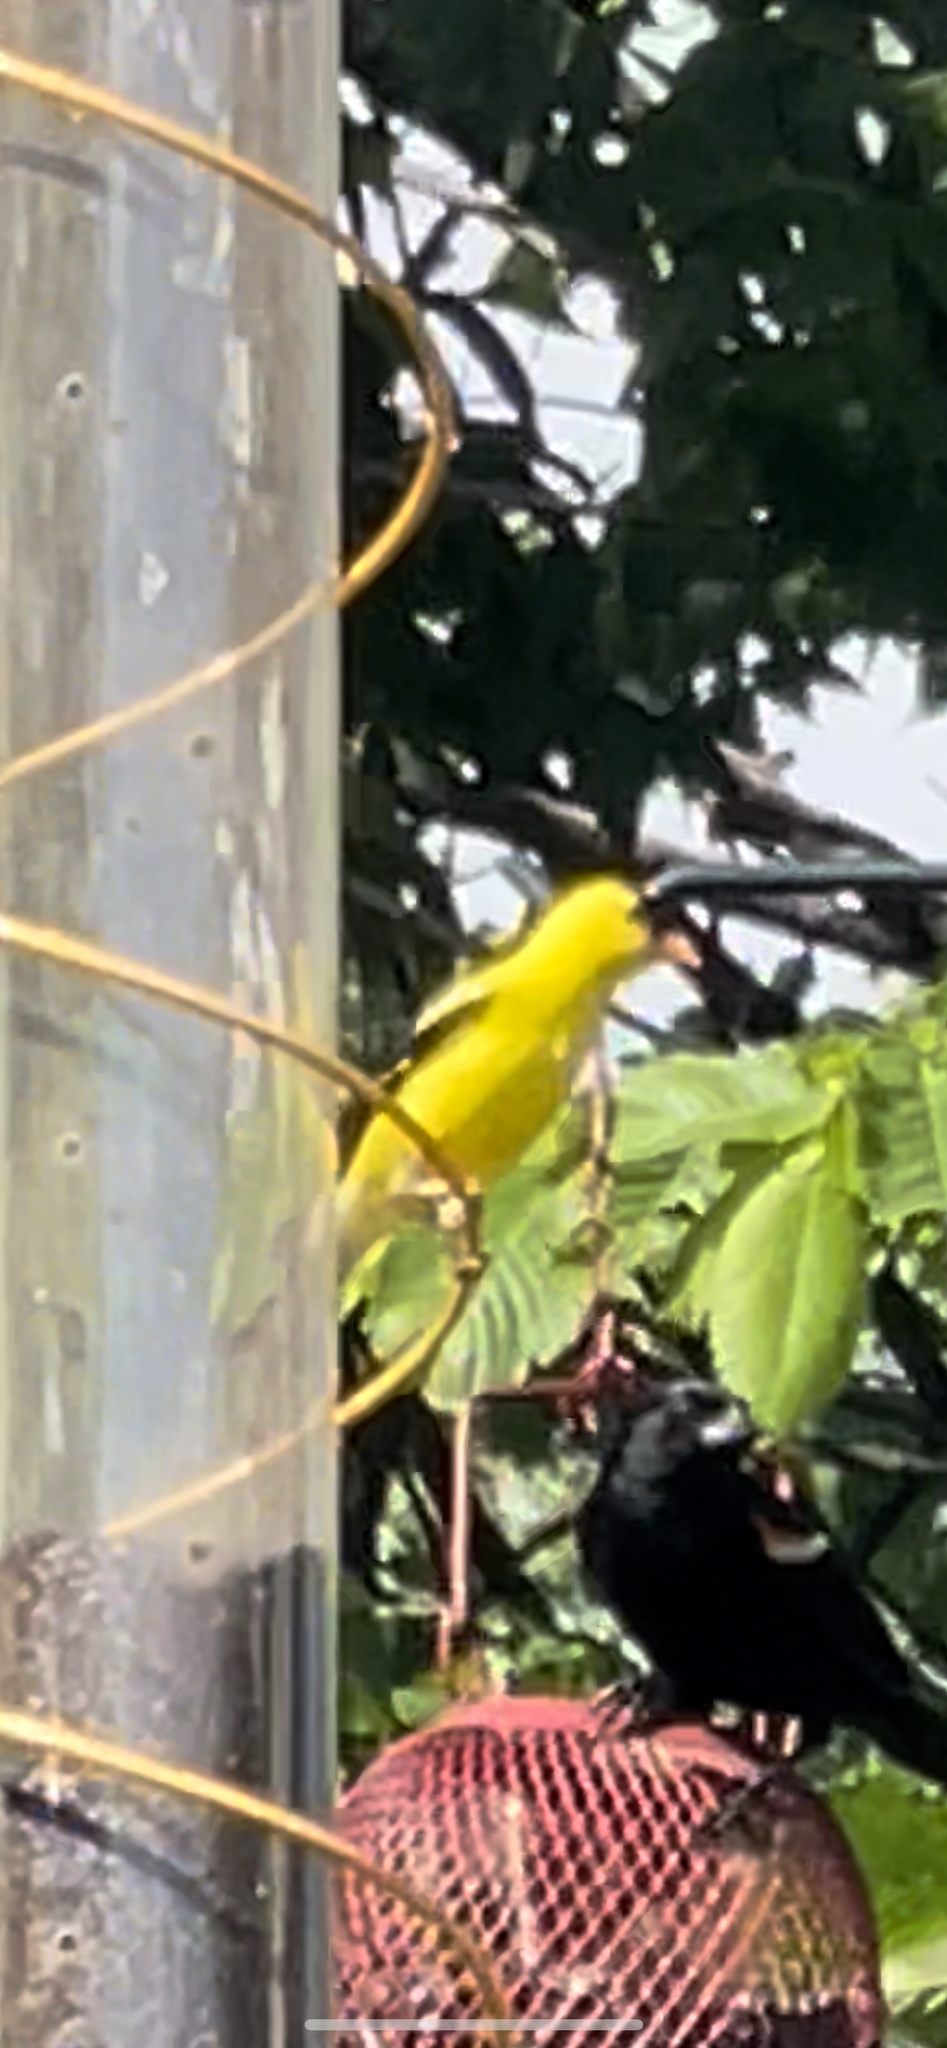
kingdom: Animalia
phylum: Chordata
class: Aves
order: Passeriformes
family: Fringillidae
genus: Spinus
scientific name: Spinus tristis
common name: American goldfinch
